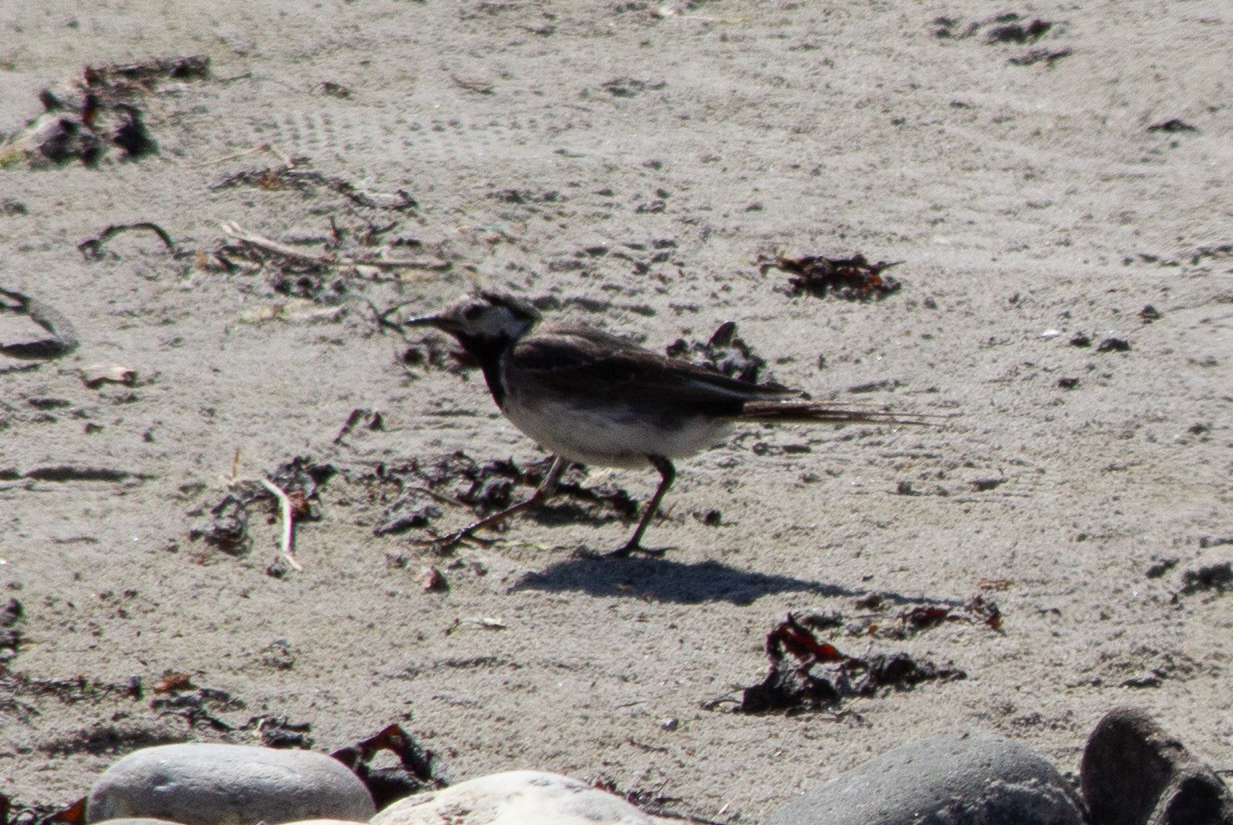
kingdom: Animalia
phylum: Chordata
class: Aves
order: Passeriformes
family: Motacillidae
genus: Motacilla
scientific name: Motacilla alba
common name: White wagtail
